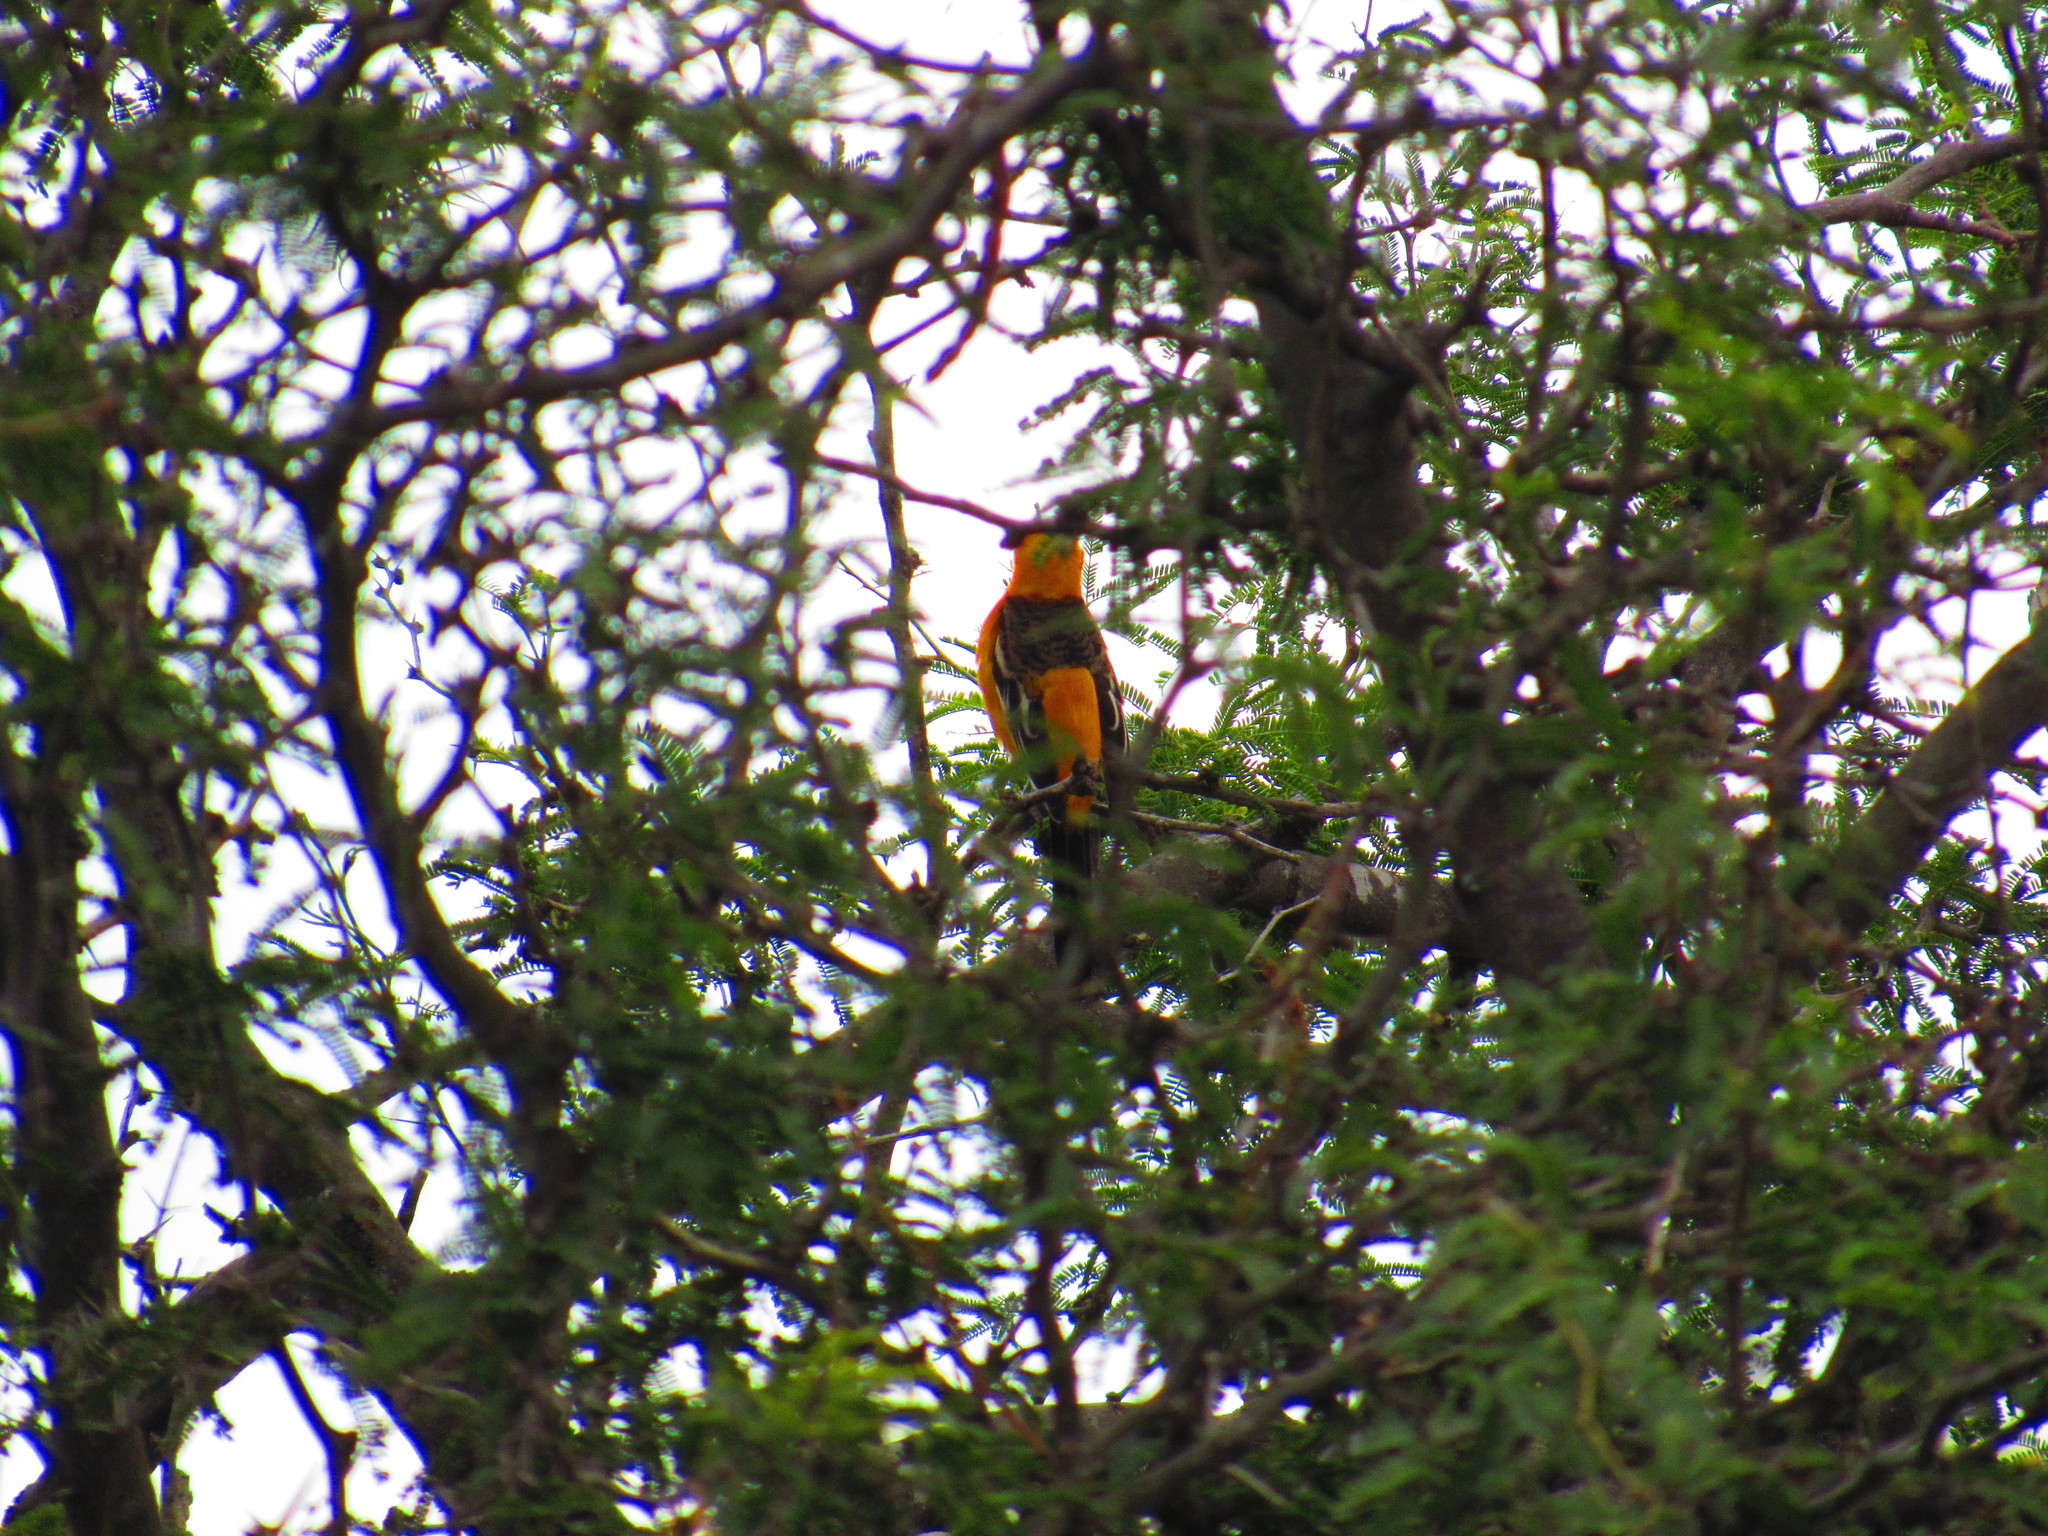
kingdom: Animalia
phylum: Chordata
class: Aves
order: Passeriformes
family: Icteridae
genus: Icterus
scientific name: Icterus cucullatus
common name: Hooded oriole
